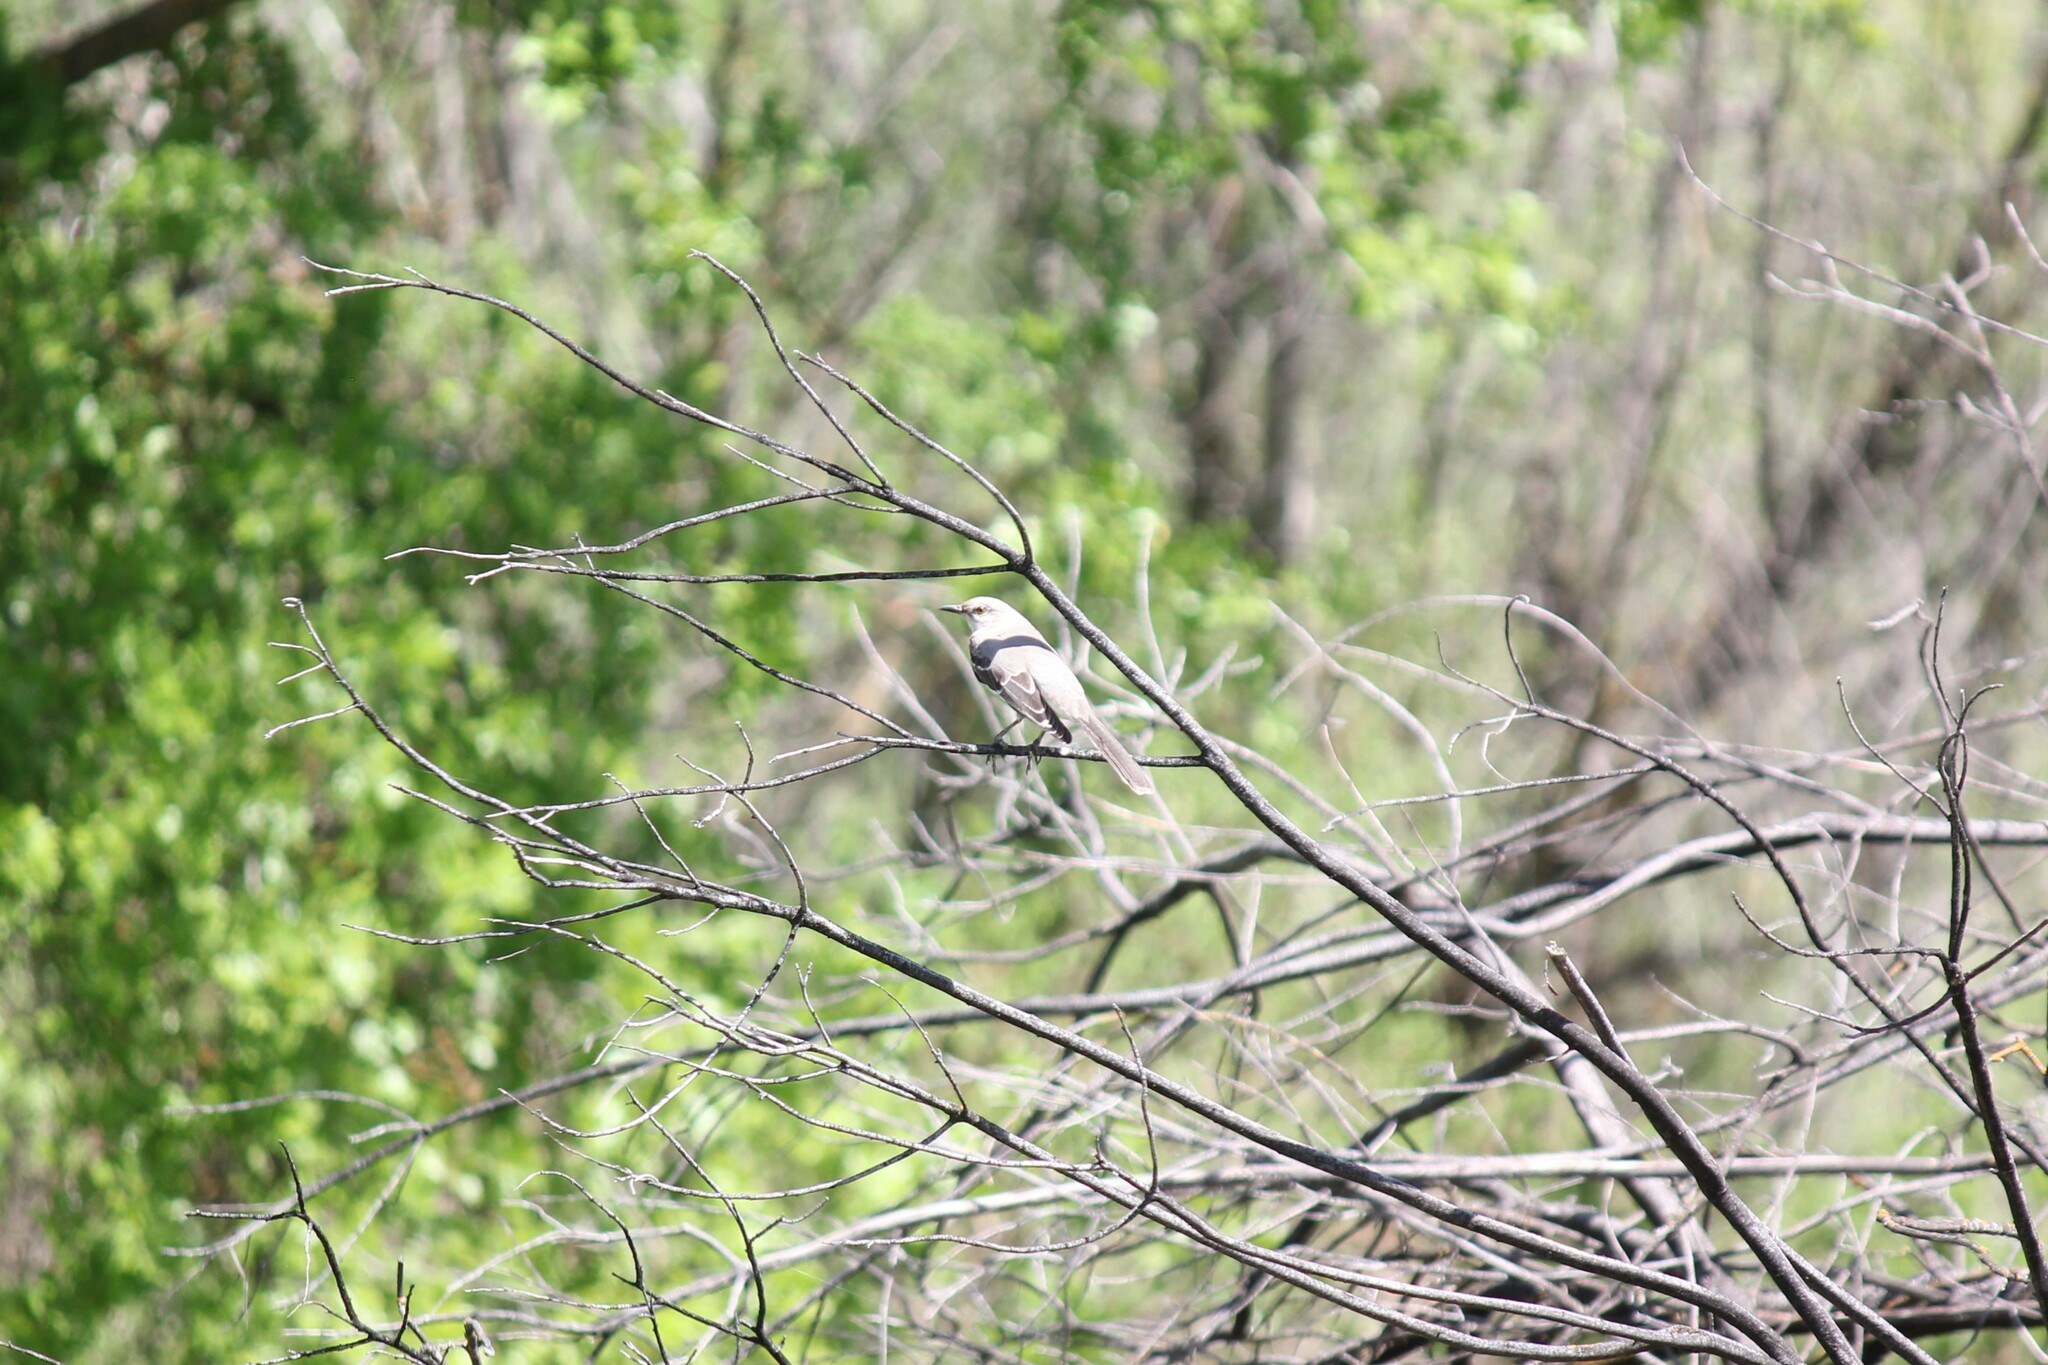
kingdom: Animalia
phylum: Chordata
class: Aves
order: Passeriformes
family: Mimidae
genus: Mimus
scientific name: Mimus polyglottos
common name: Northern mockingbird
